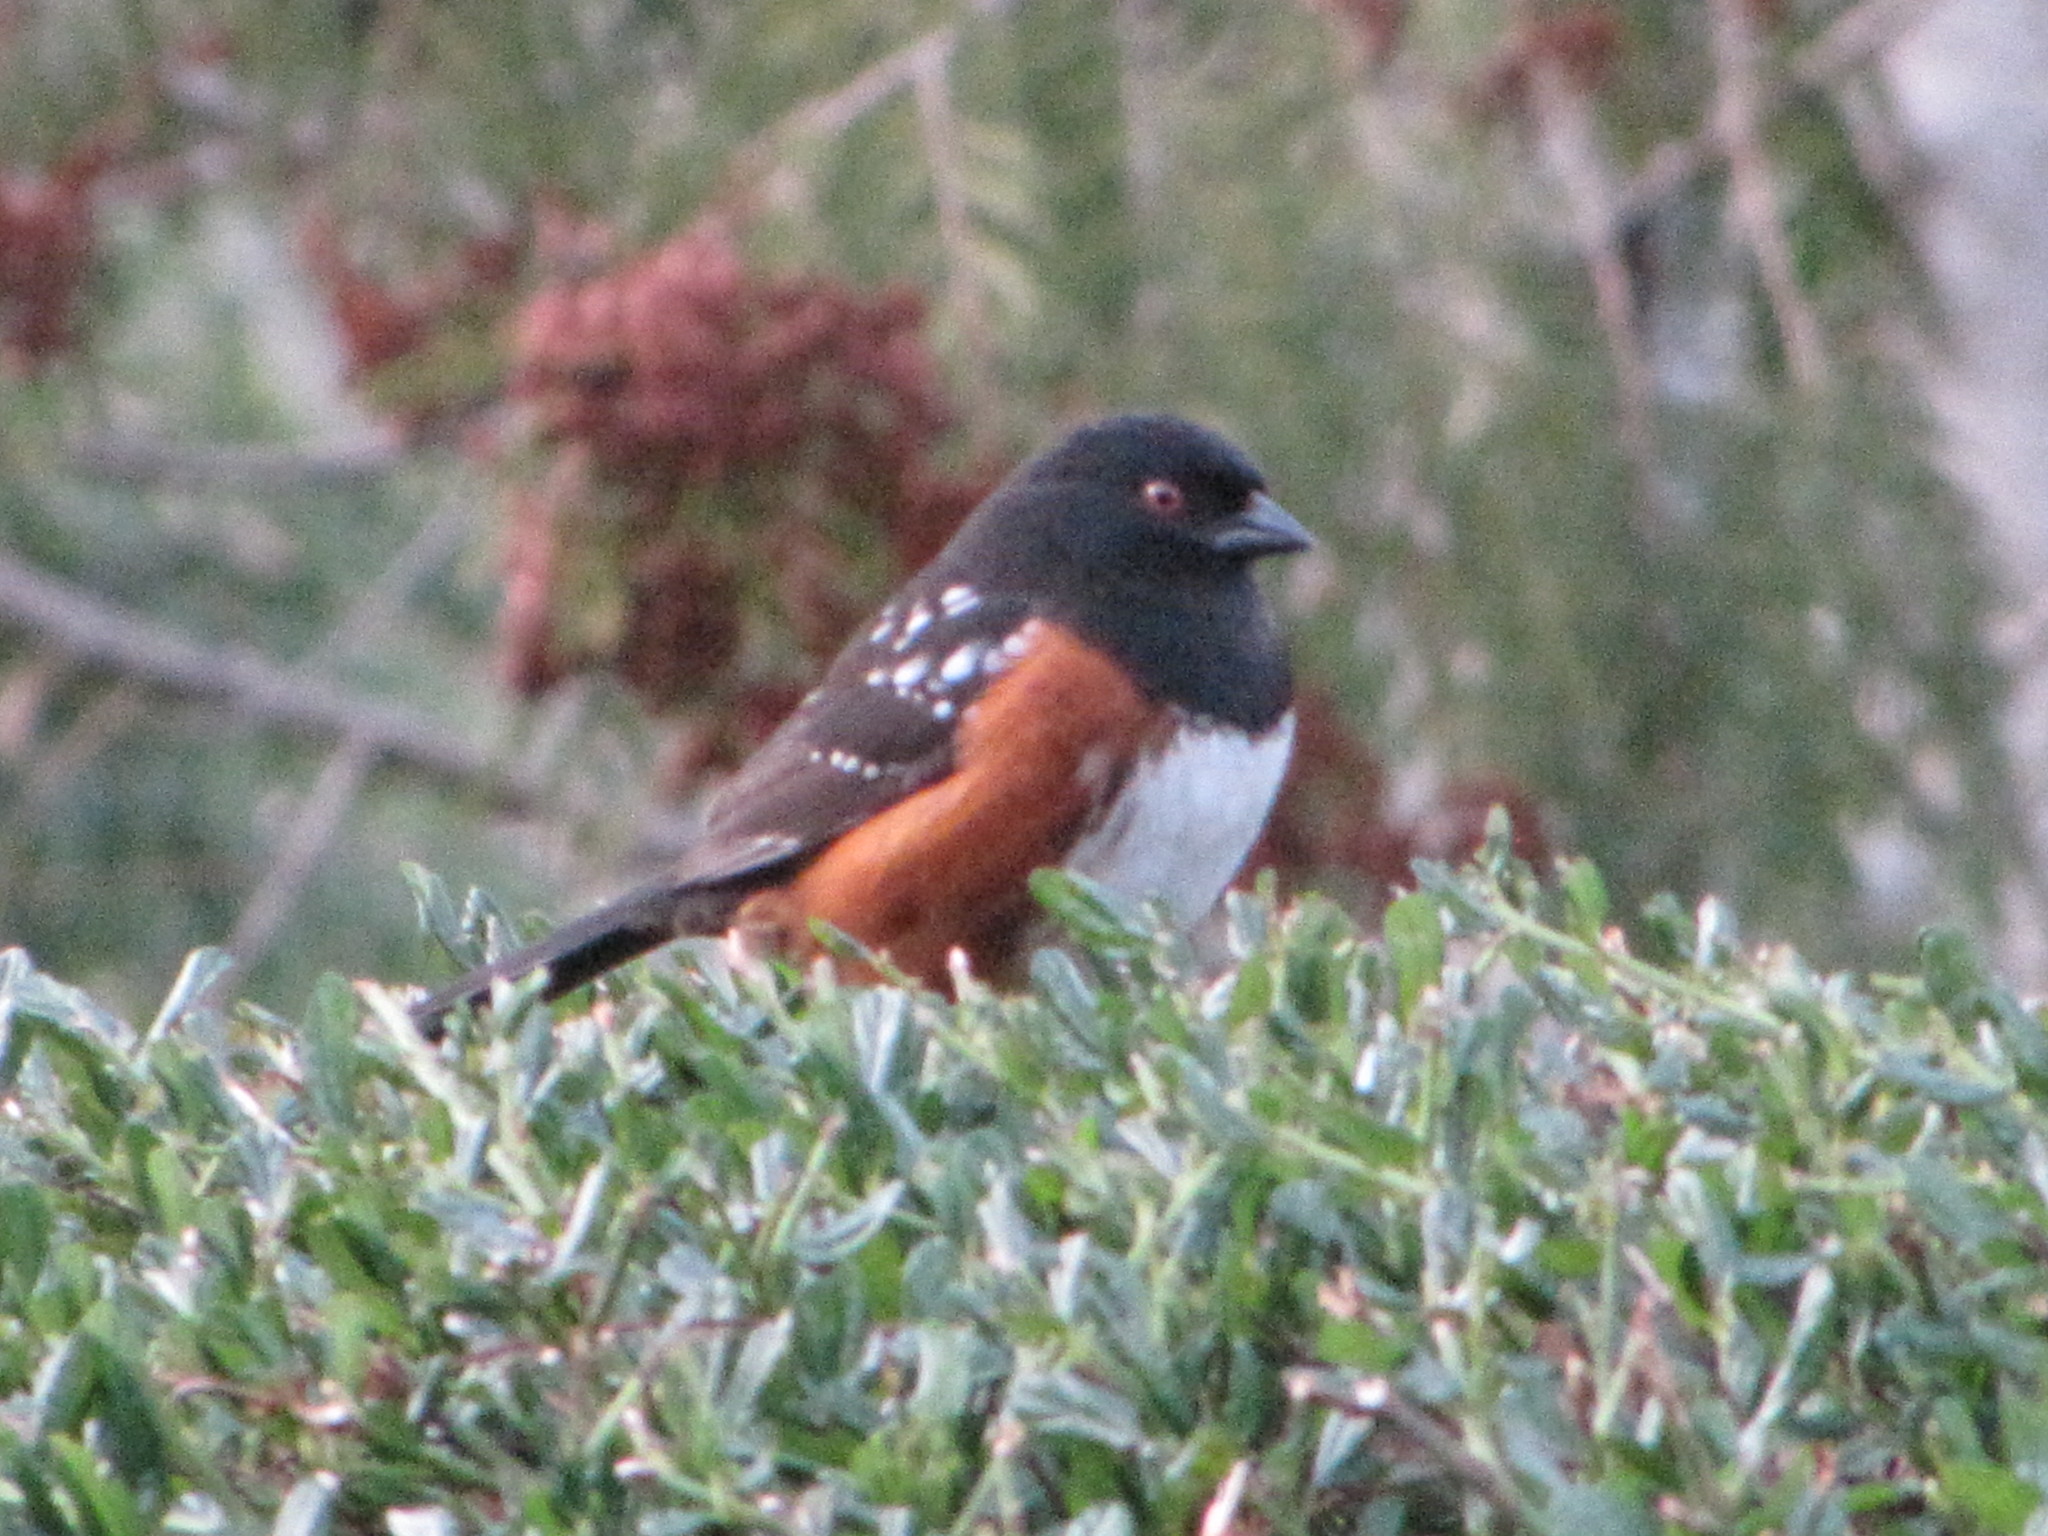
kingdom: Animalia
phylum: Chordata
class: Aves
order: Passeriformes
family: Passerellidae
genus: Pipilo
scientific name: Pipilo maculatus
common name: Spotted towhee
